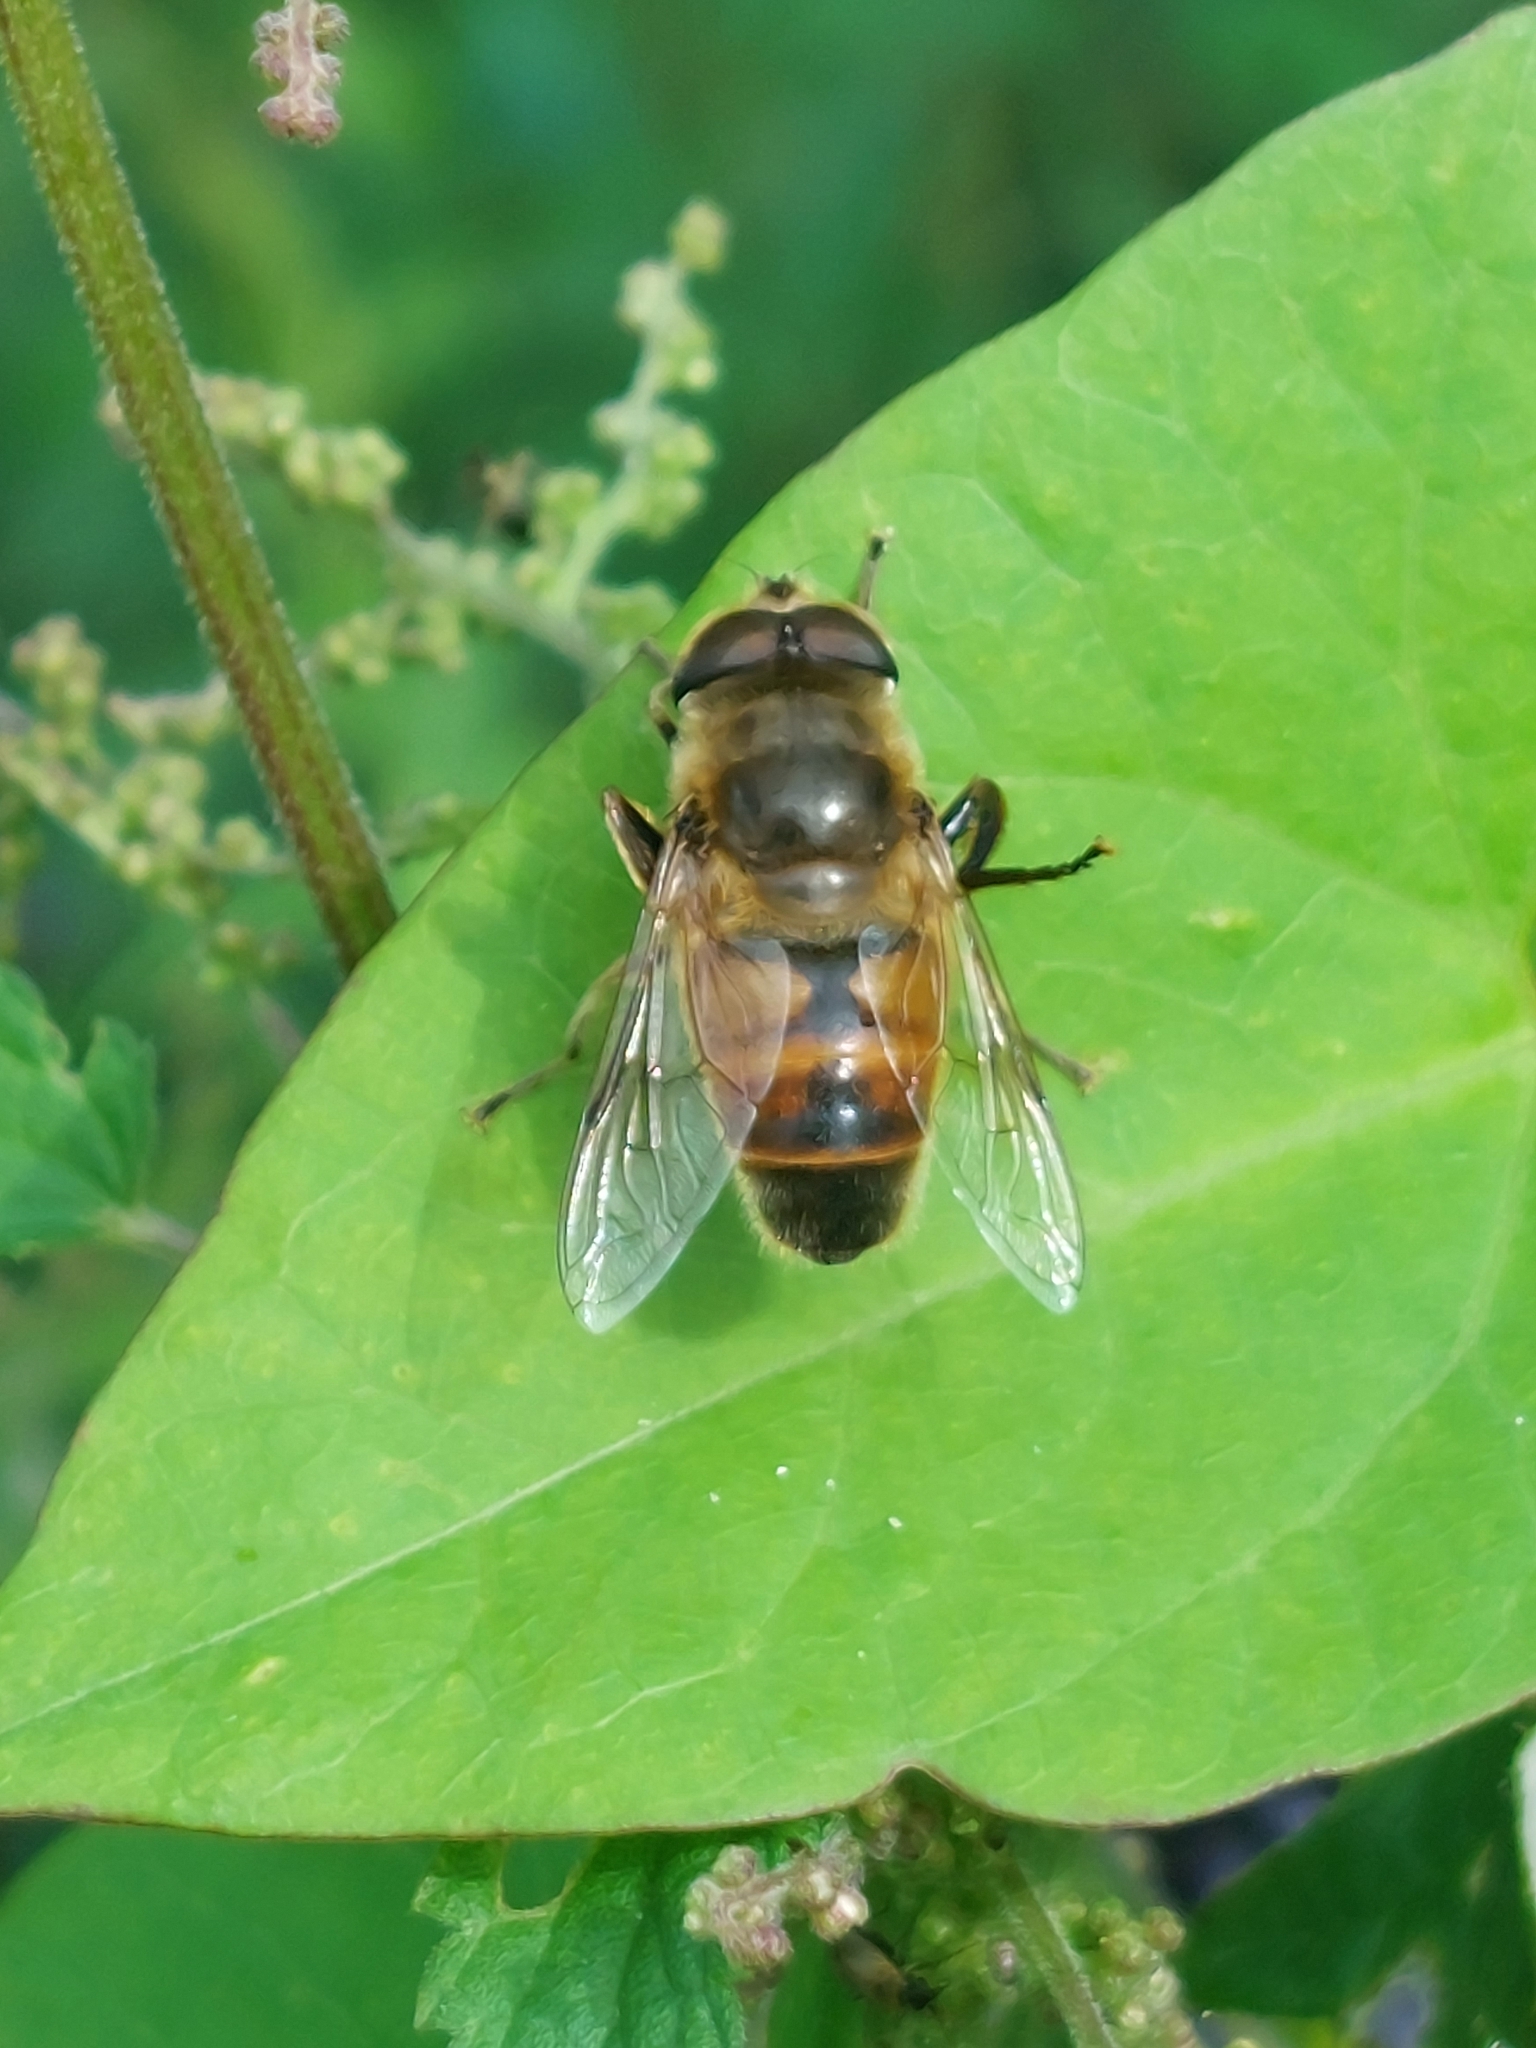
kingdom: Animalia
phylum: Arthropoda
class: Insecta
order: Diptera
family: Syrphidae
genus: Eristalis
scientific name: Eristalis tenax
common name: Drone fly
